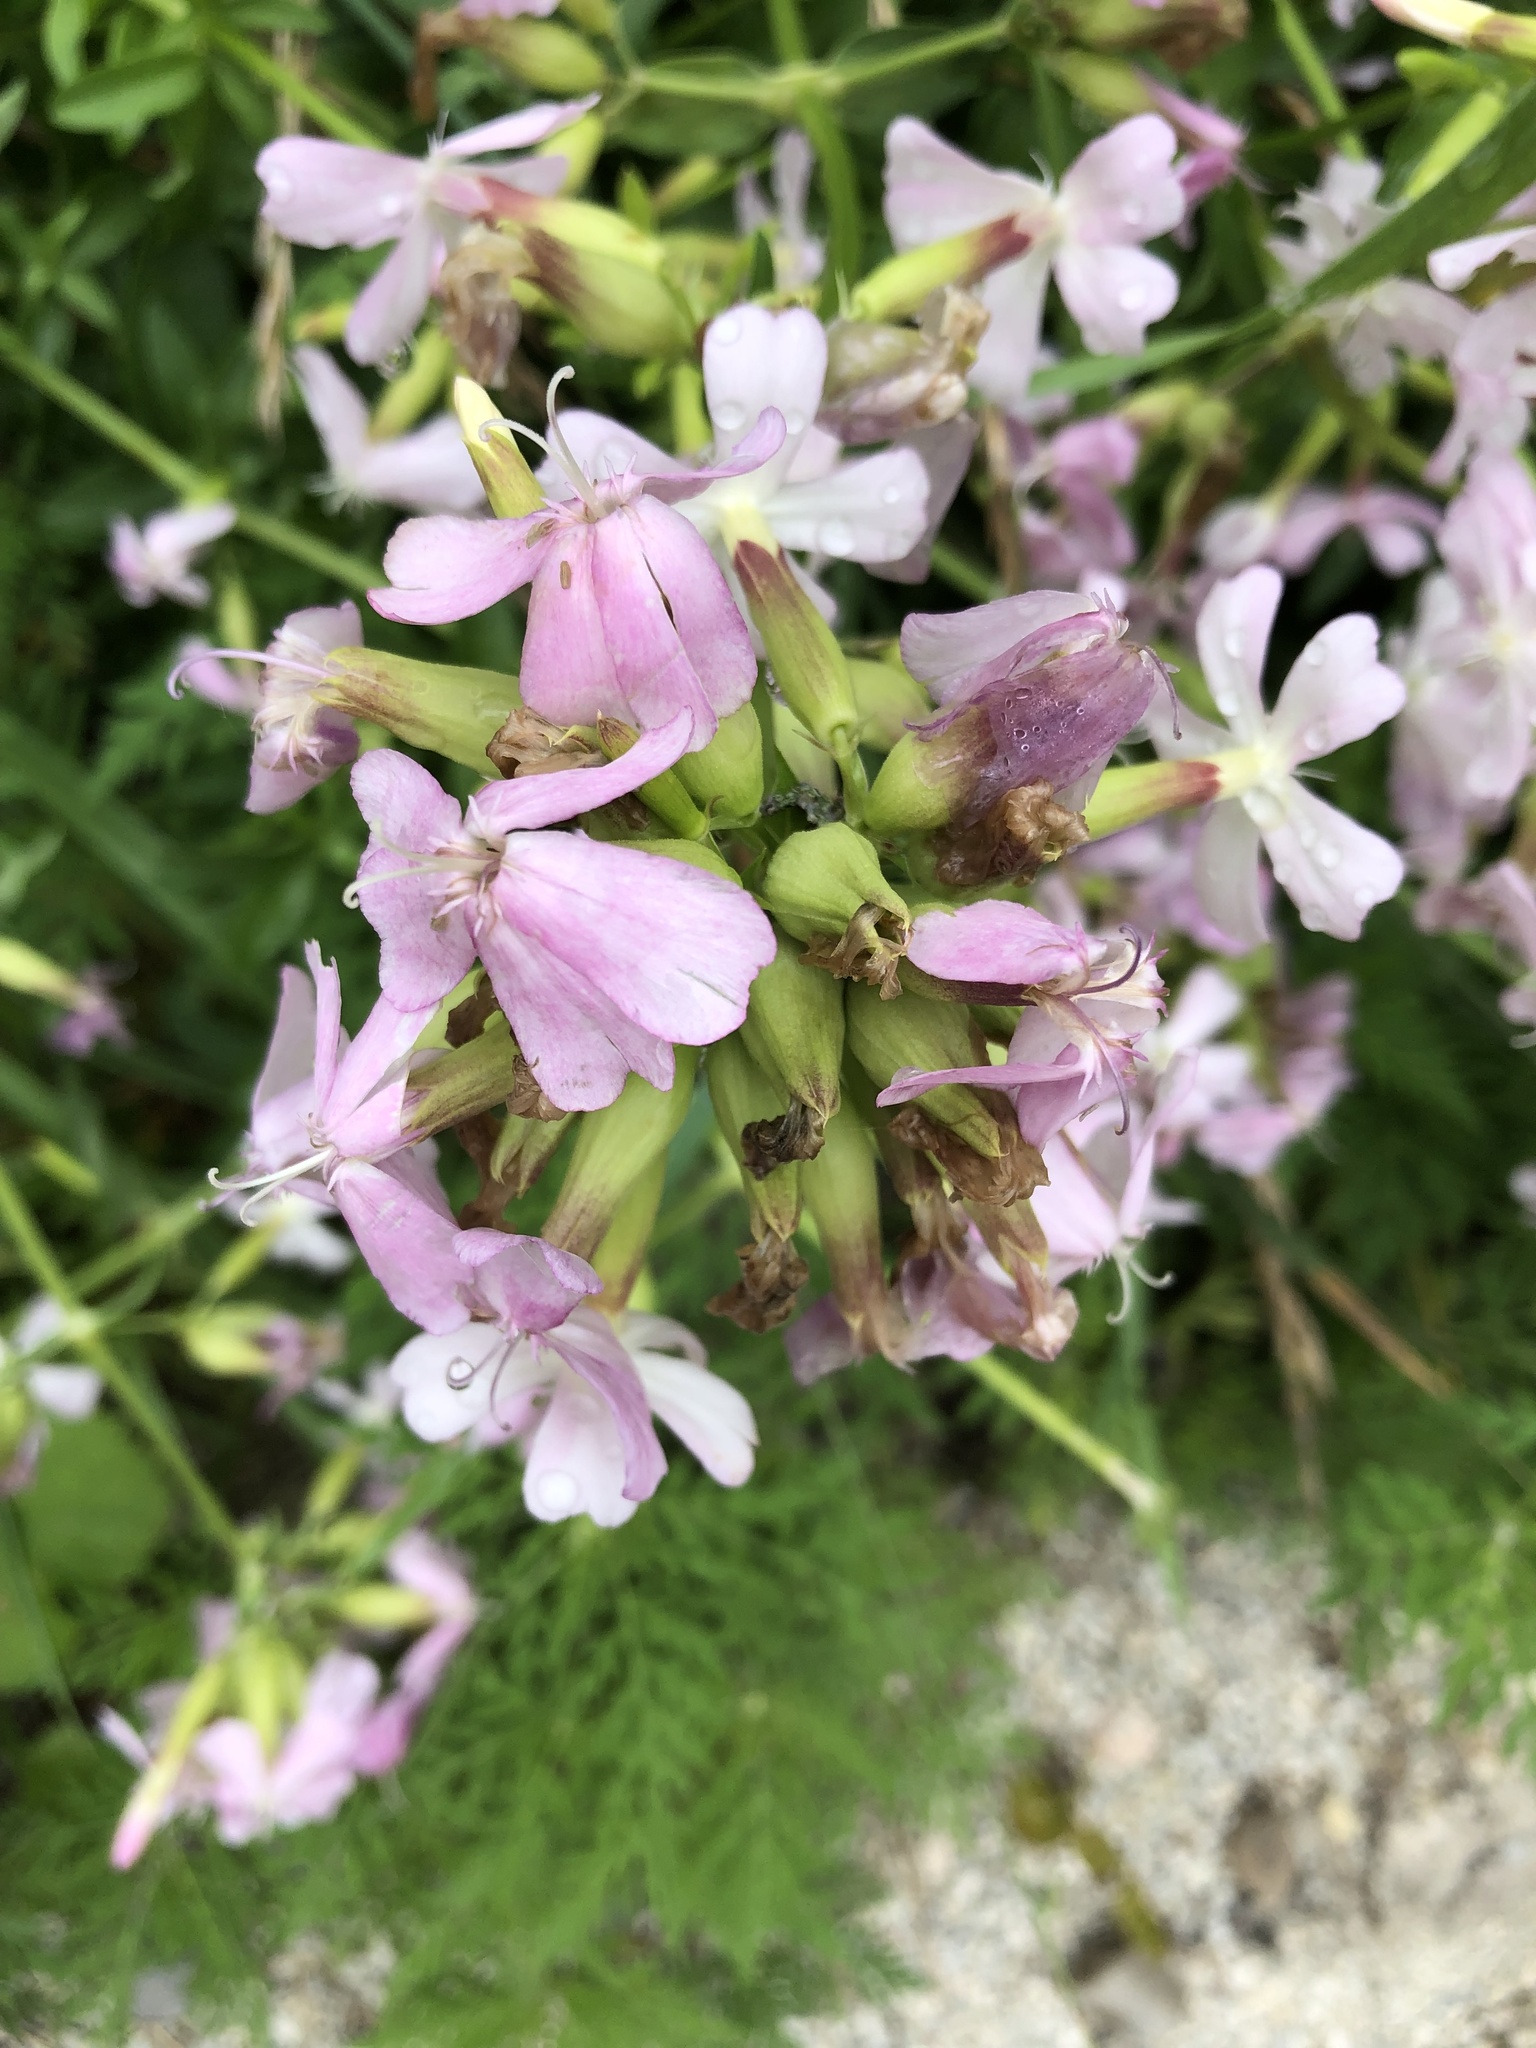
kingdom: Plantae
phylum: Tracheophyta
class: Magnoliopsida
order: Caryophyllales
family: Caryophyllaceae
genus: Saponaria
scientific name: Saponaria officinalis
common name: Soapwort
